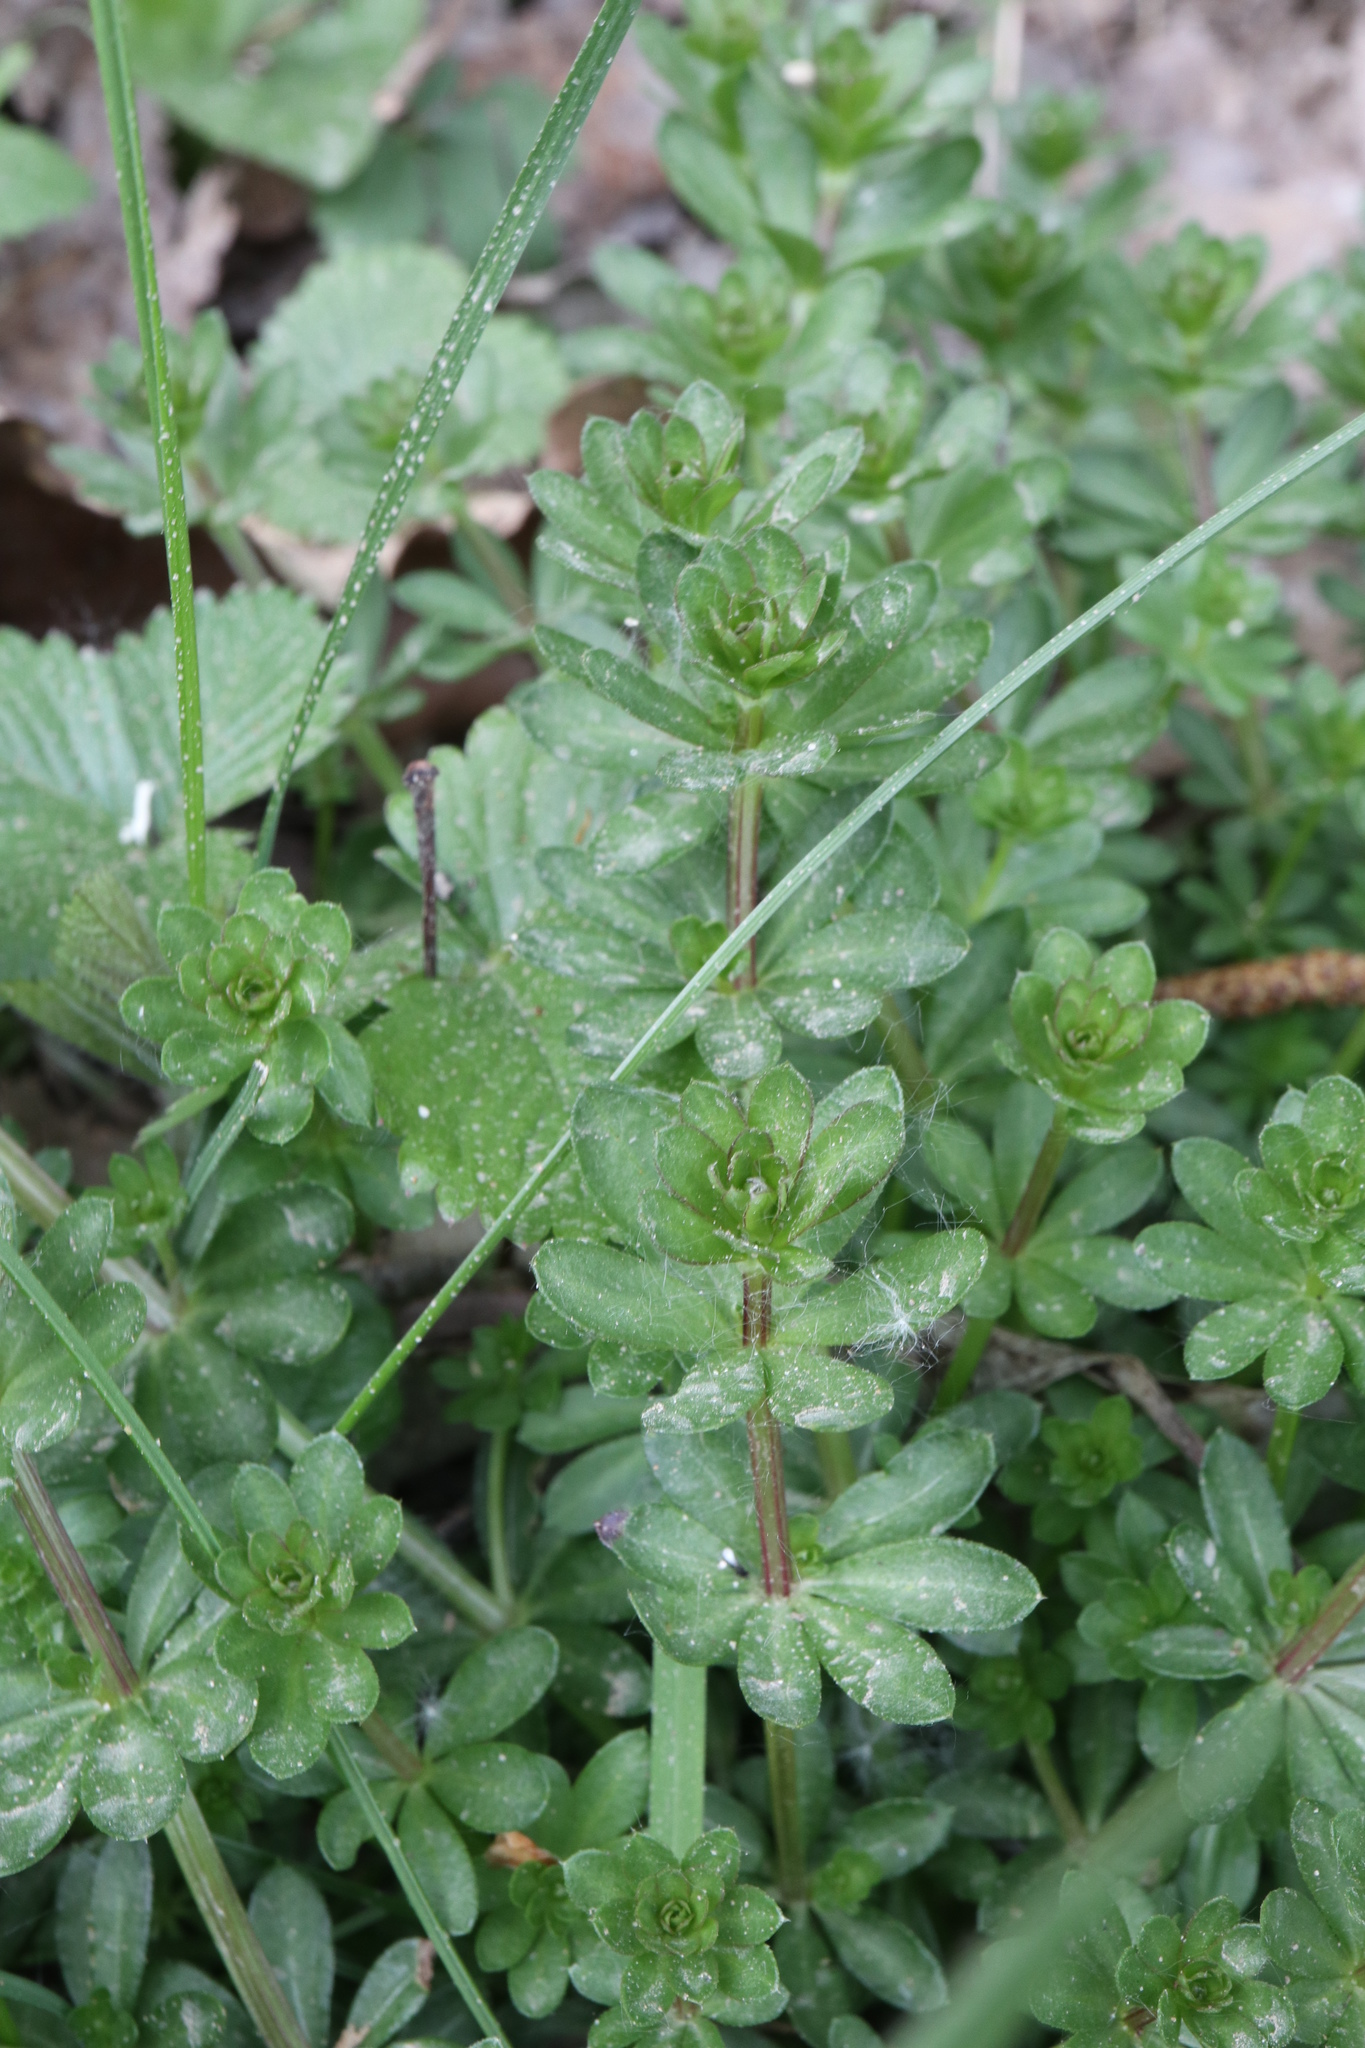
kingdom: Plantae
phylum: Tracheophyta
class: Magnoliopsida
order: Gentianales
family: Rubiaceae
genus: Galium
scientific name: Galium mollugo
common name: Hedge bedstraw
